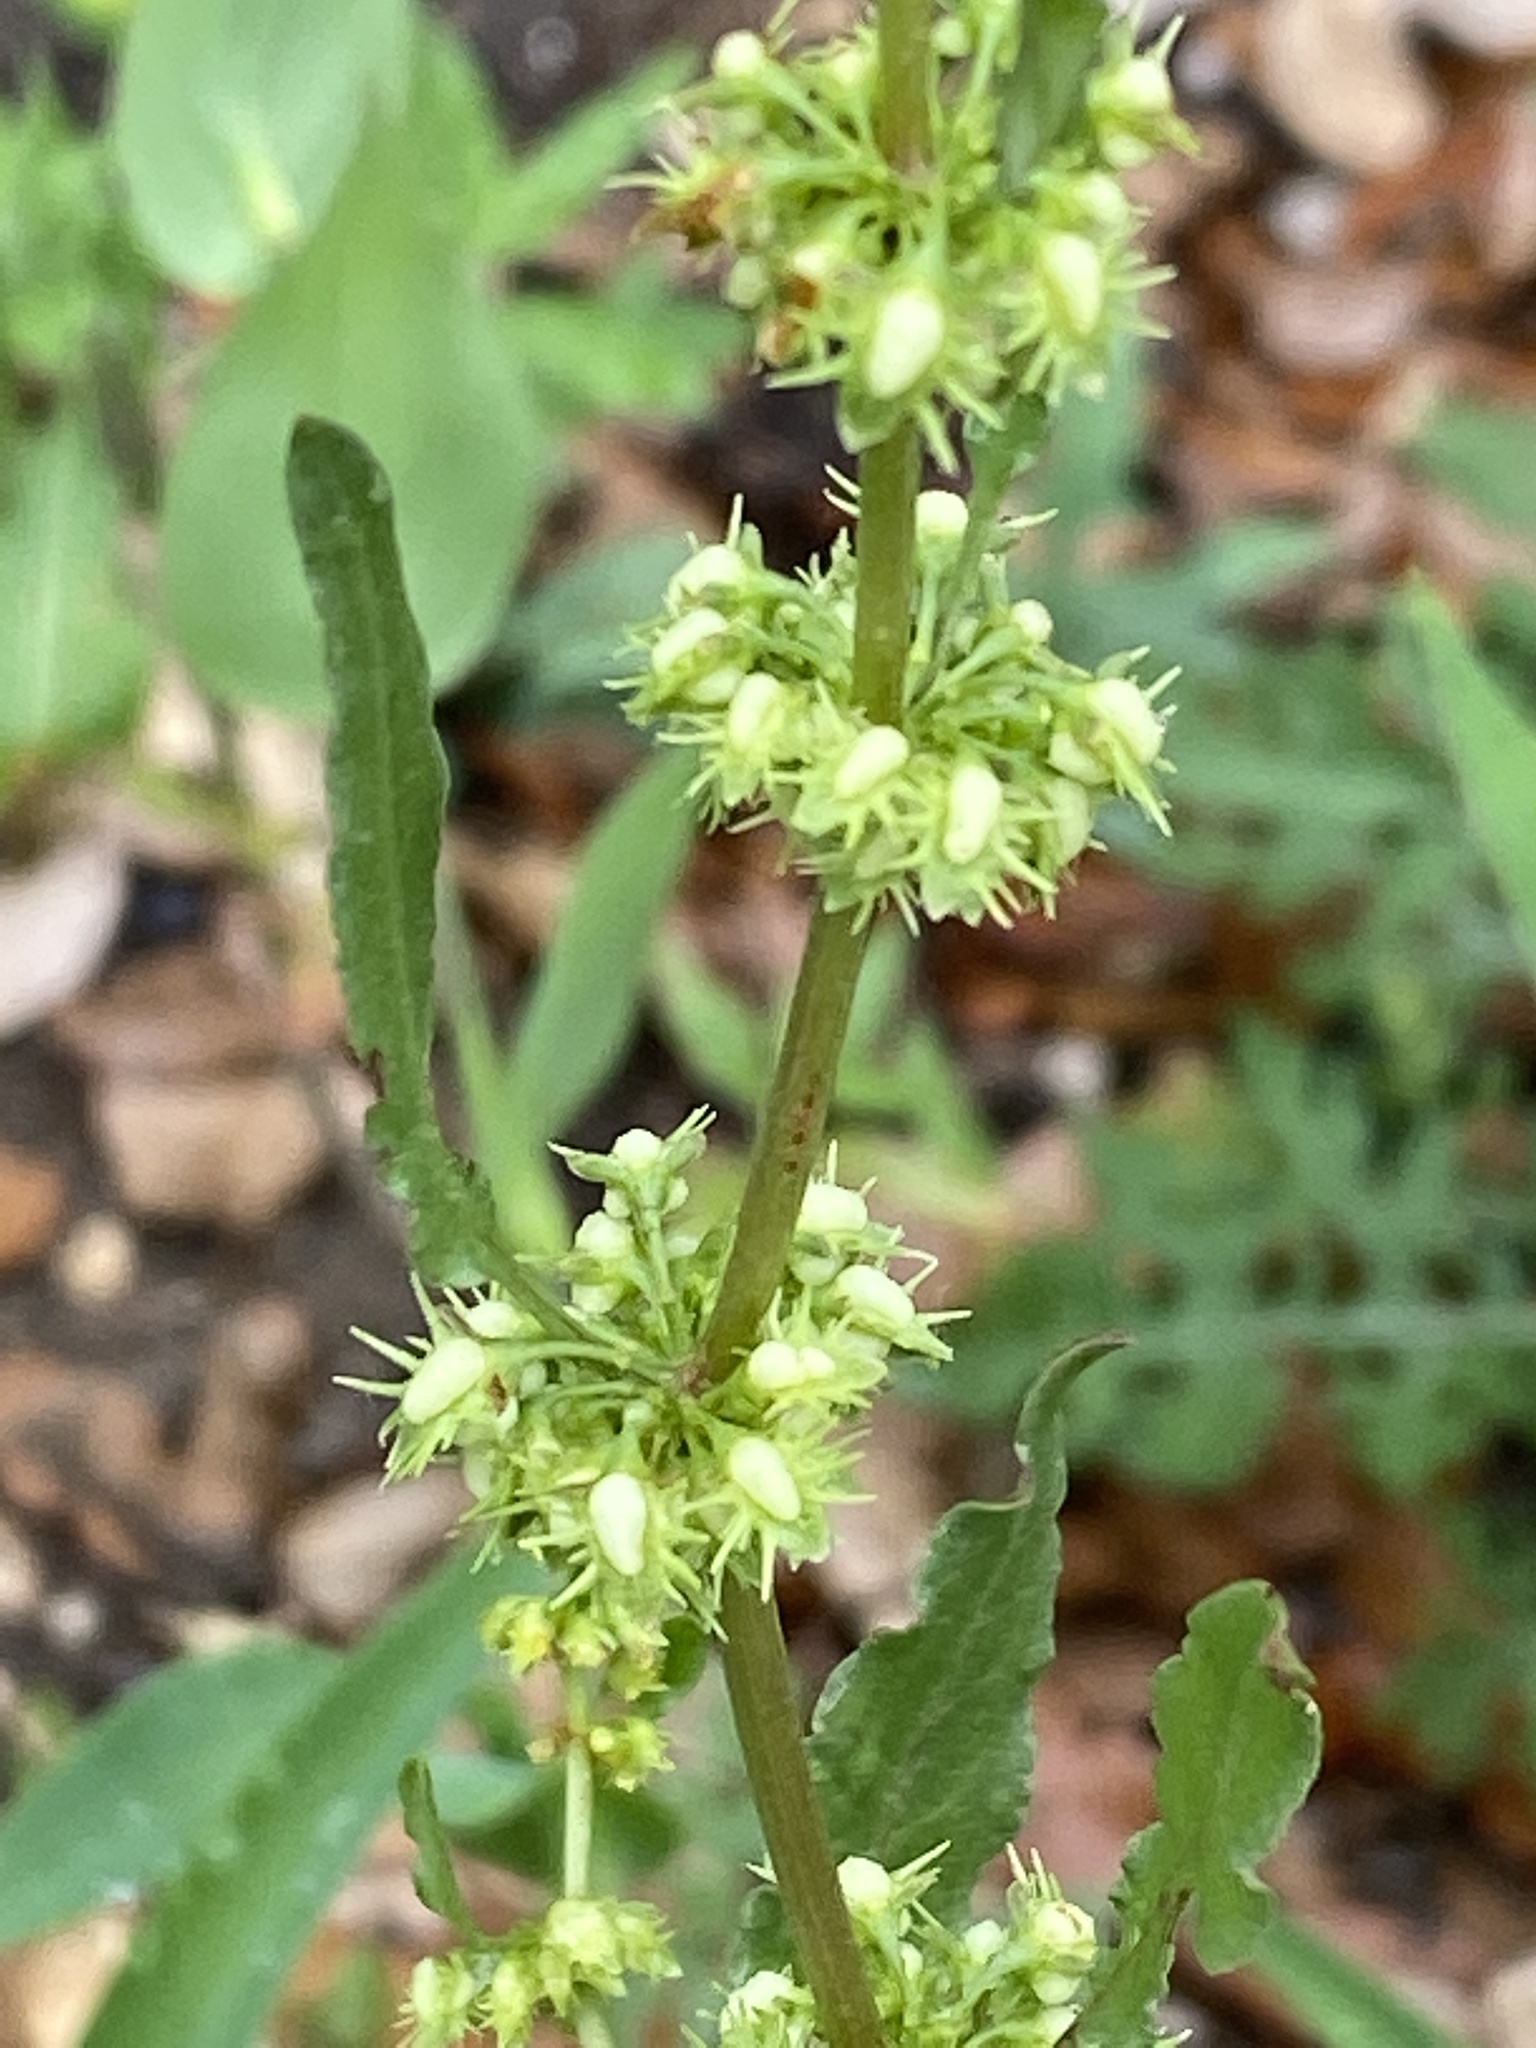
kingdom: Plantae
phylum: Tracheophyta
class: Magnoliopsida
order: Caryophyllales
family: Polygonaceae
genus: Rumex
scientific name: Rumex pulcher
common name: Fiddle dock
